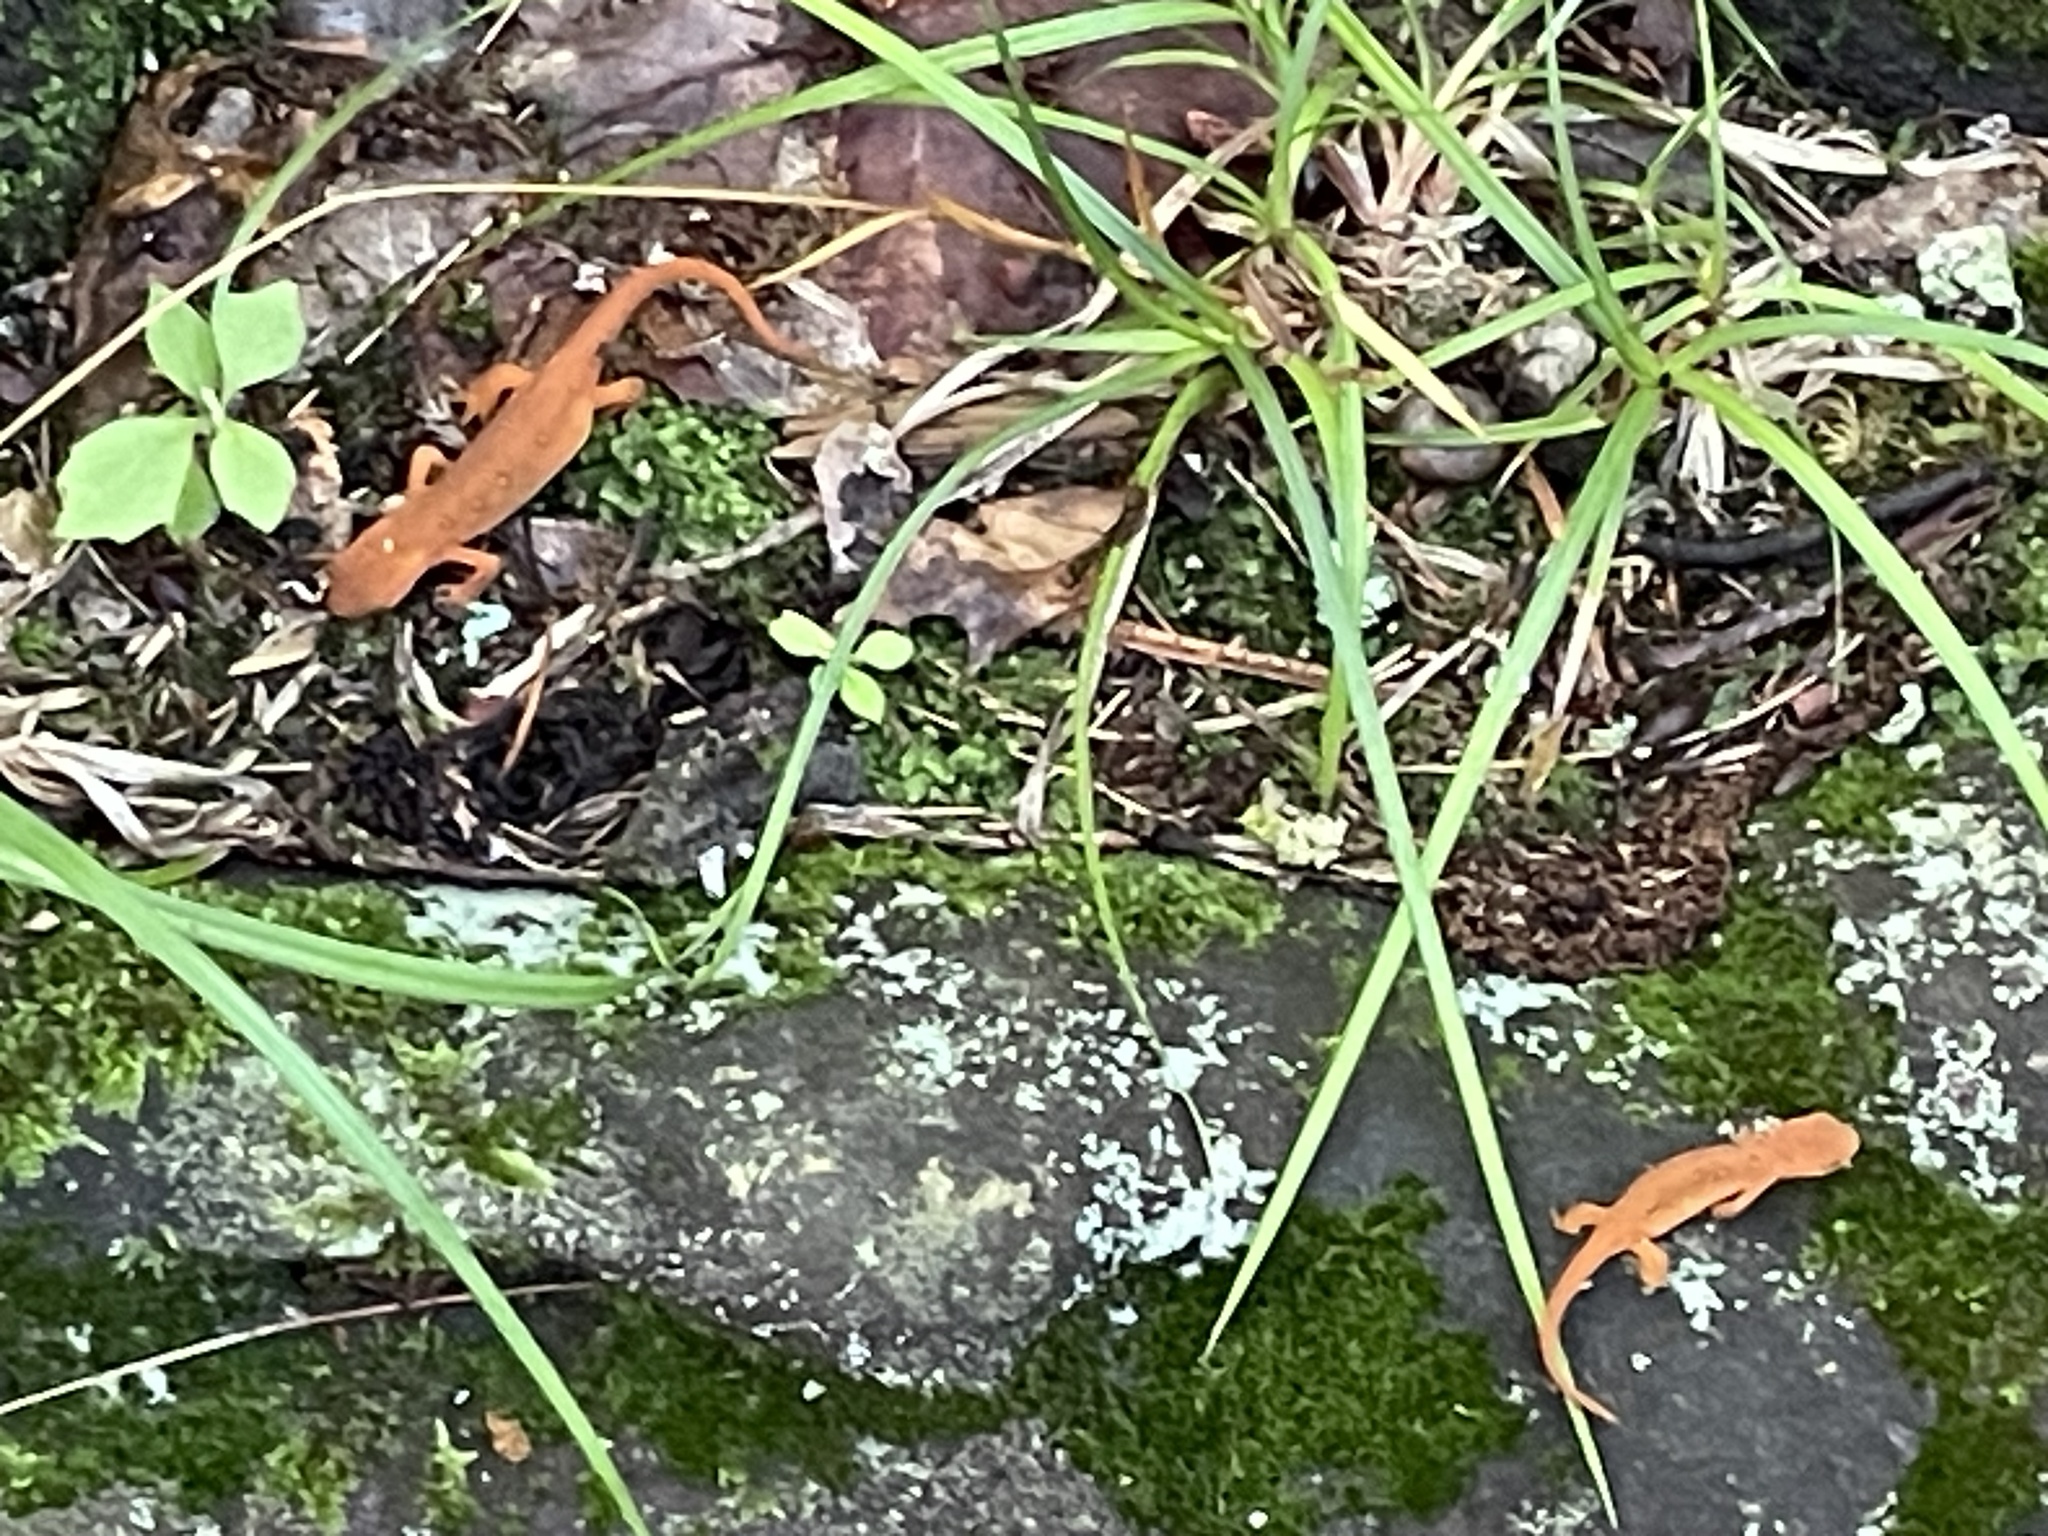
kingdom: Animalia
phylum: Chordata
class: Amphibia
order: Caudata
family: Salamandridae
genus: Notophthalmus
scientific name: Notophthalmus viridescens
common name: Eastern newt
